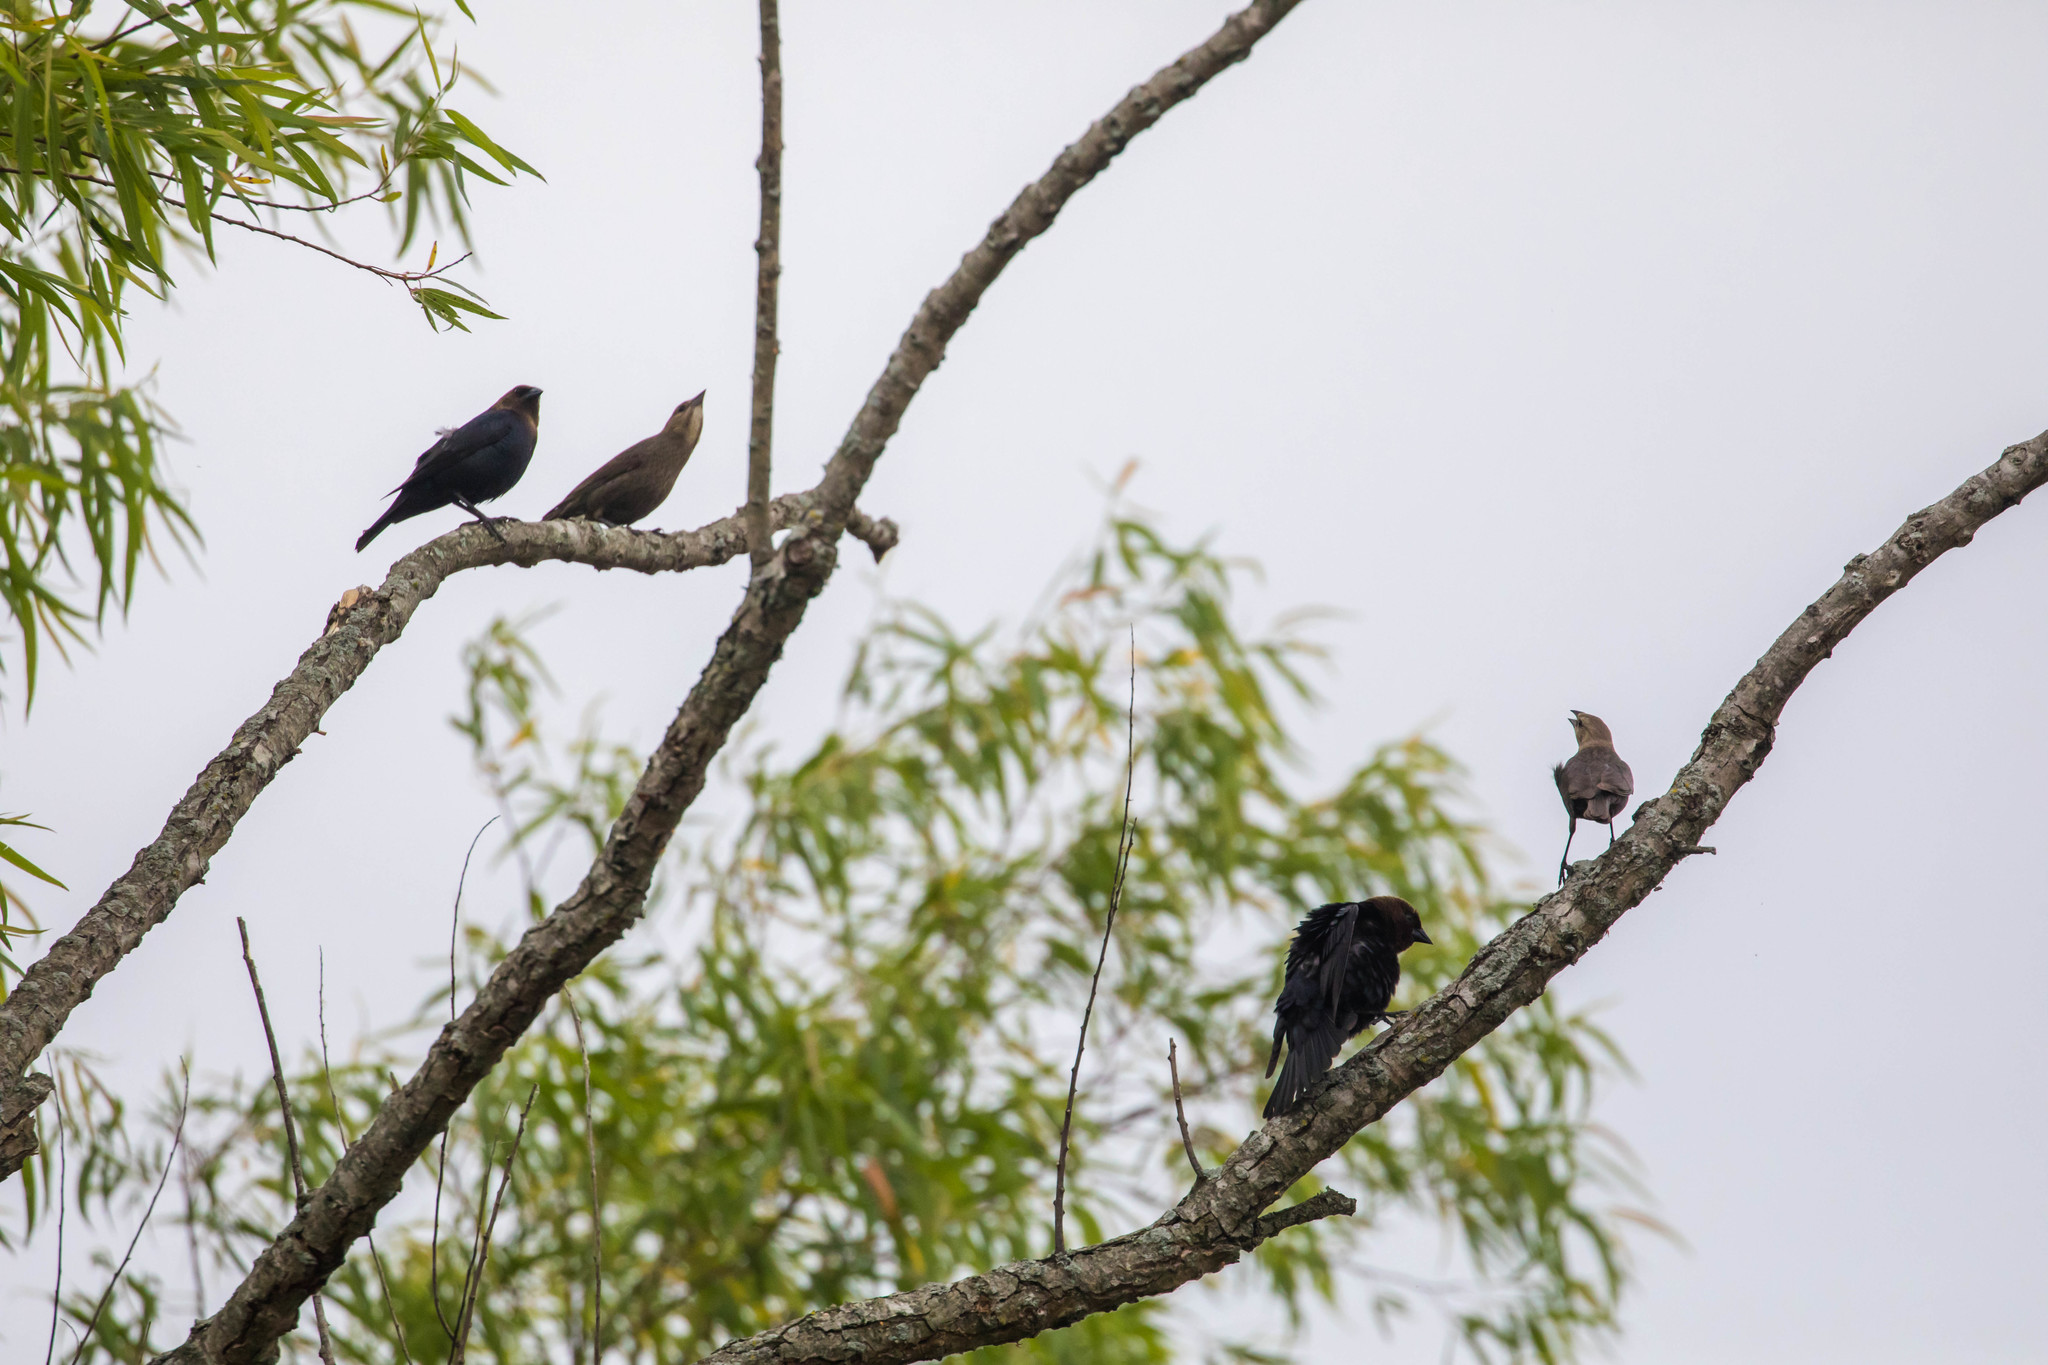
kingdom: Animalia
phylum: Chordata
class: Aves
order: Passeriformes
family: Icteridae
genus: Molothrus
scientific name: Molothrus ater
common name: Brown-headed cowbird
